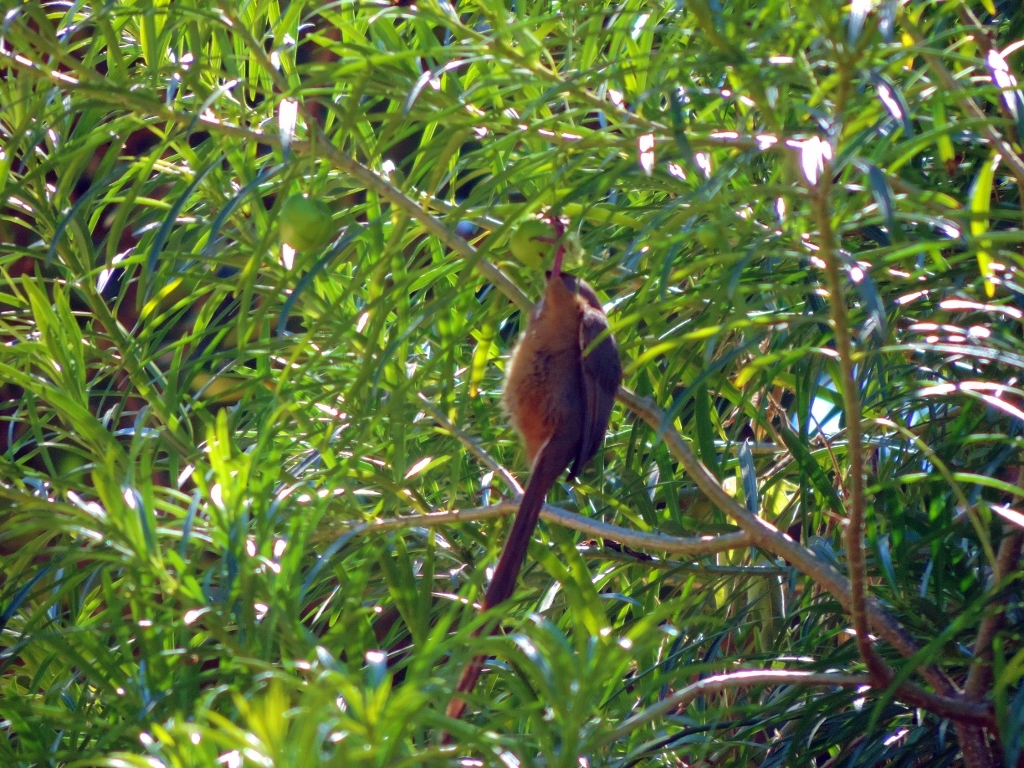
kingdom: Animalia
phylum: Chordata
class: Aves
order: Coliiformes
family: Coliidae
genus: Colius
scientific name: Colius striatus
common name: Speckled mousebird
